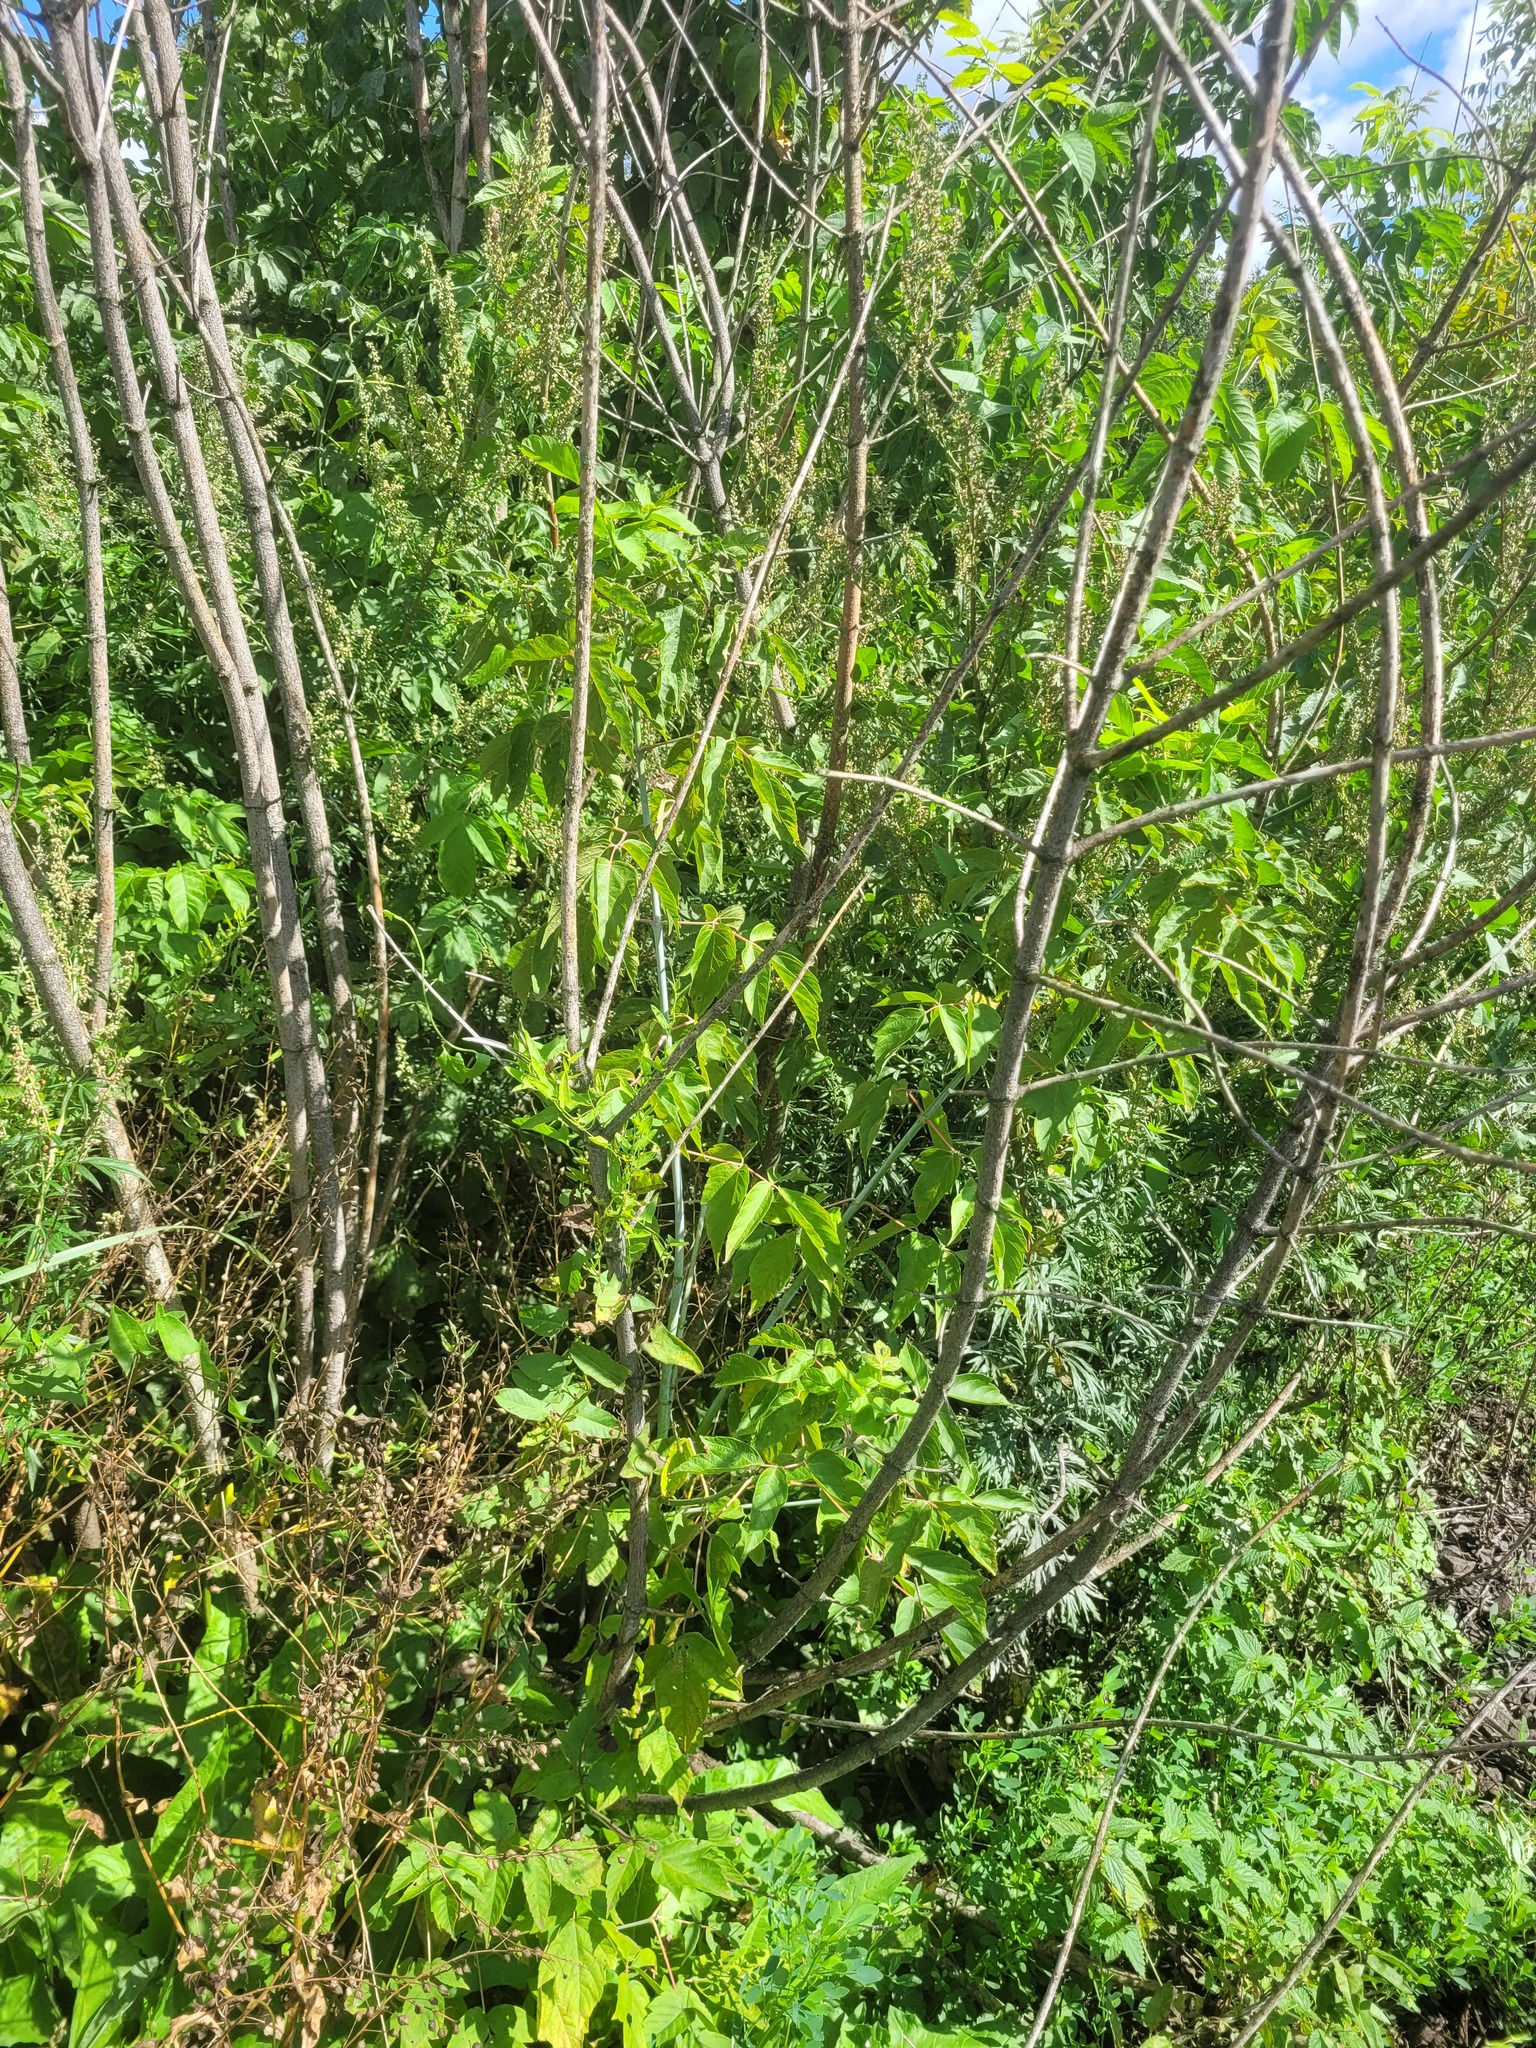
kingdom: Plantae
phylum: Tracheophyta
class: Magnoliopsida
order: Sapindales
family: Sapindaceae
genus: Acer
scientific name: Acer negundo
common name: Ashleaf maple
